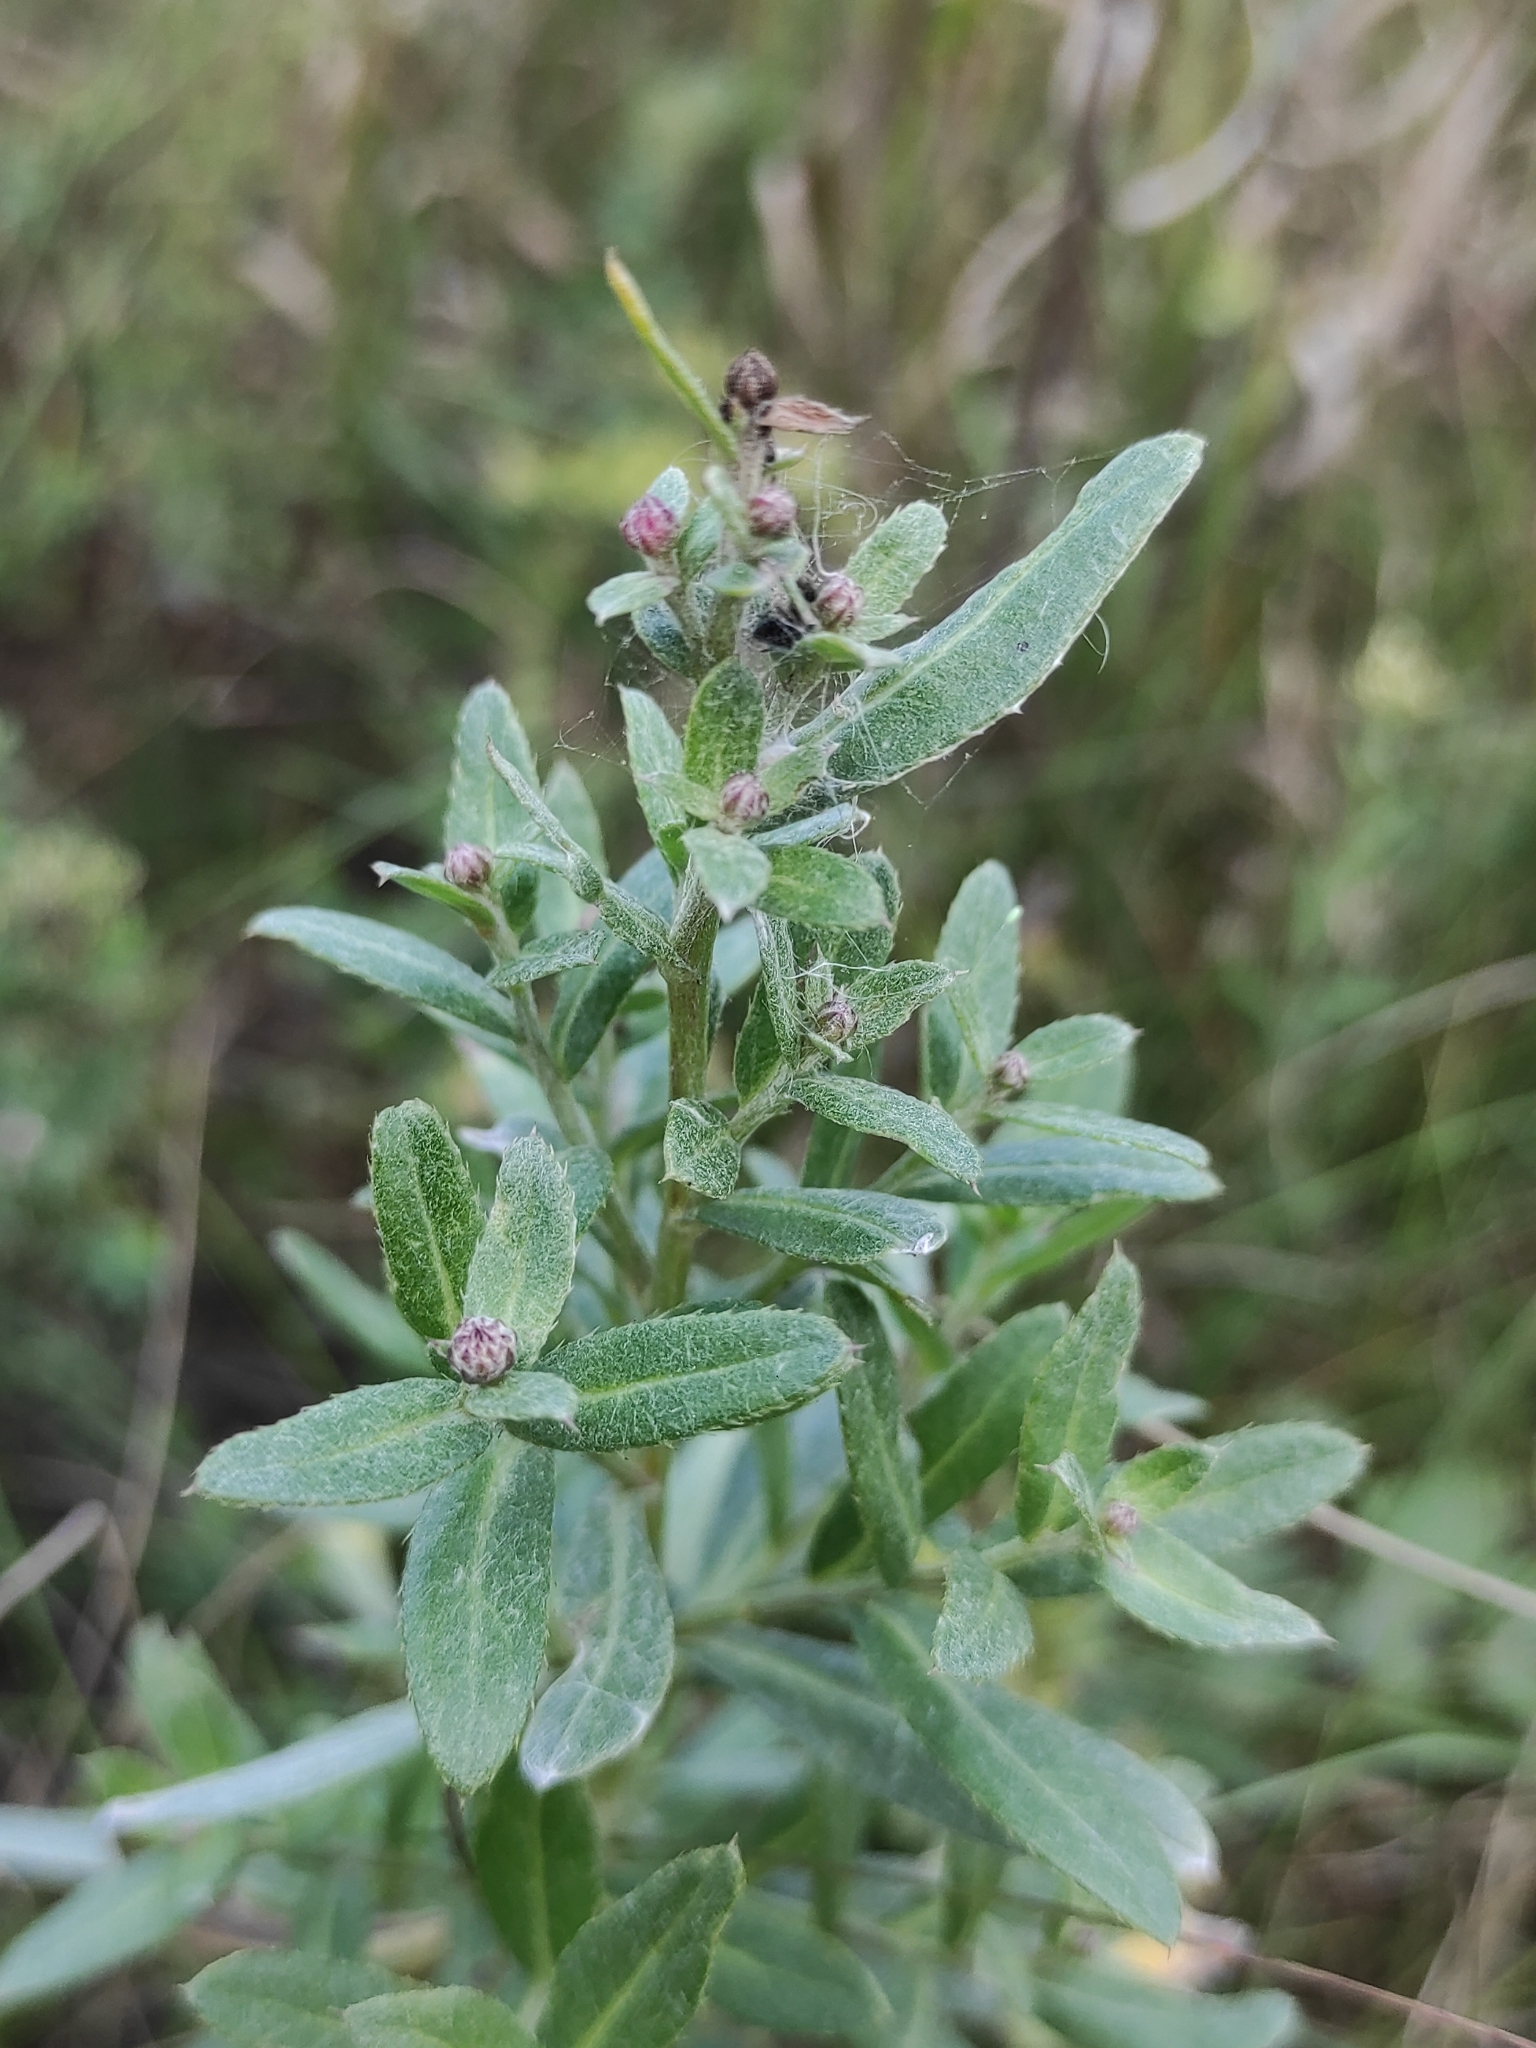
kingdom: Plantae
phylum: Tracheophyta
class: Magnoliopsida
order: Asterales
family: Asteraceae
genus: Cirsium
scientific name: Cirsium arvense
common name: Creeping thistle
